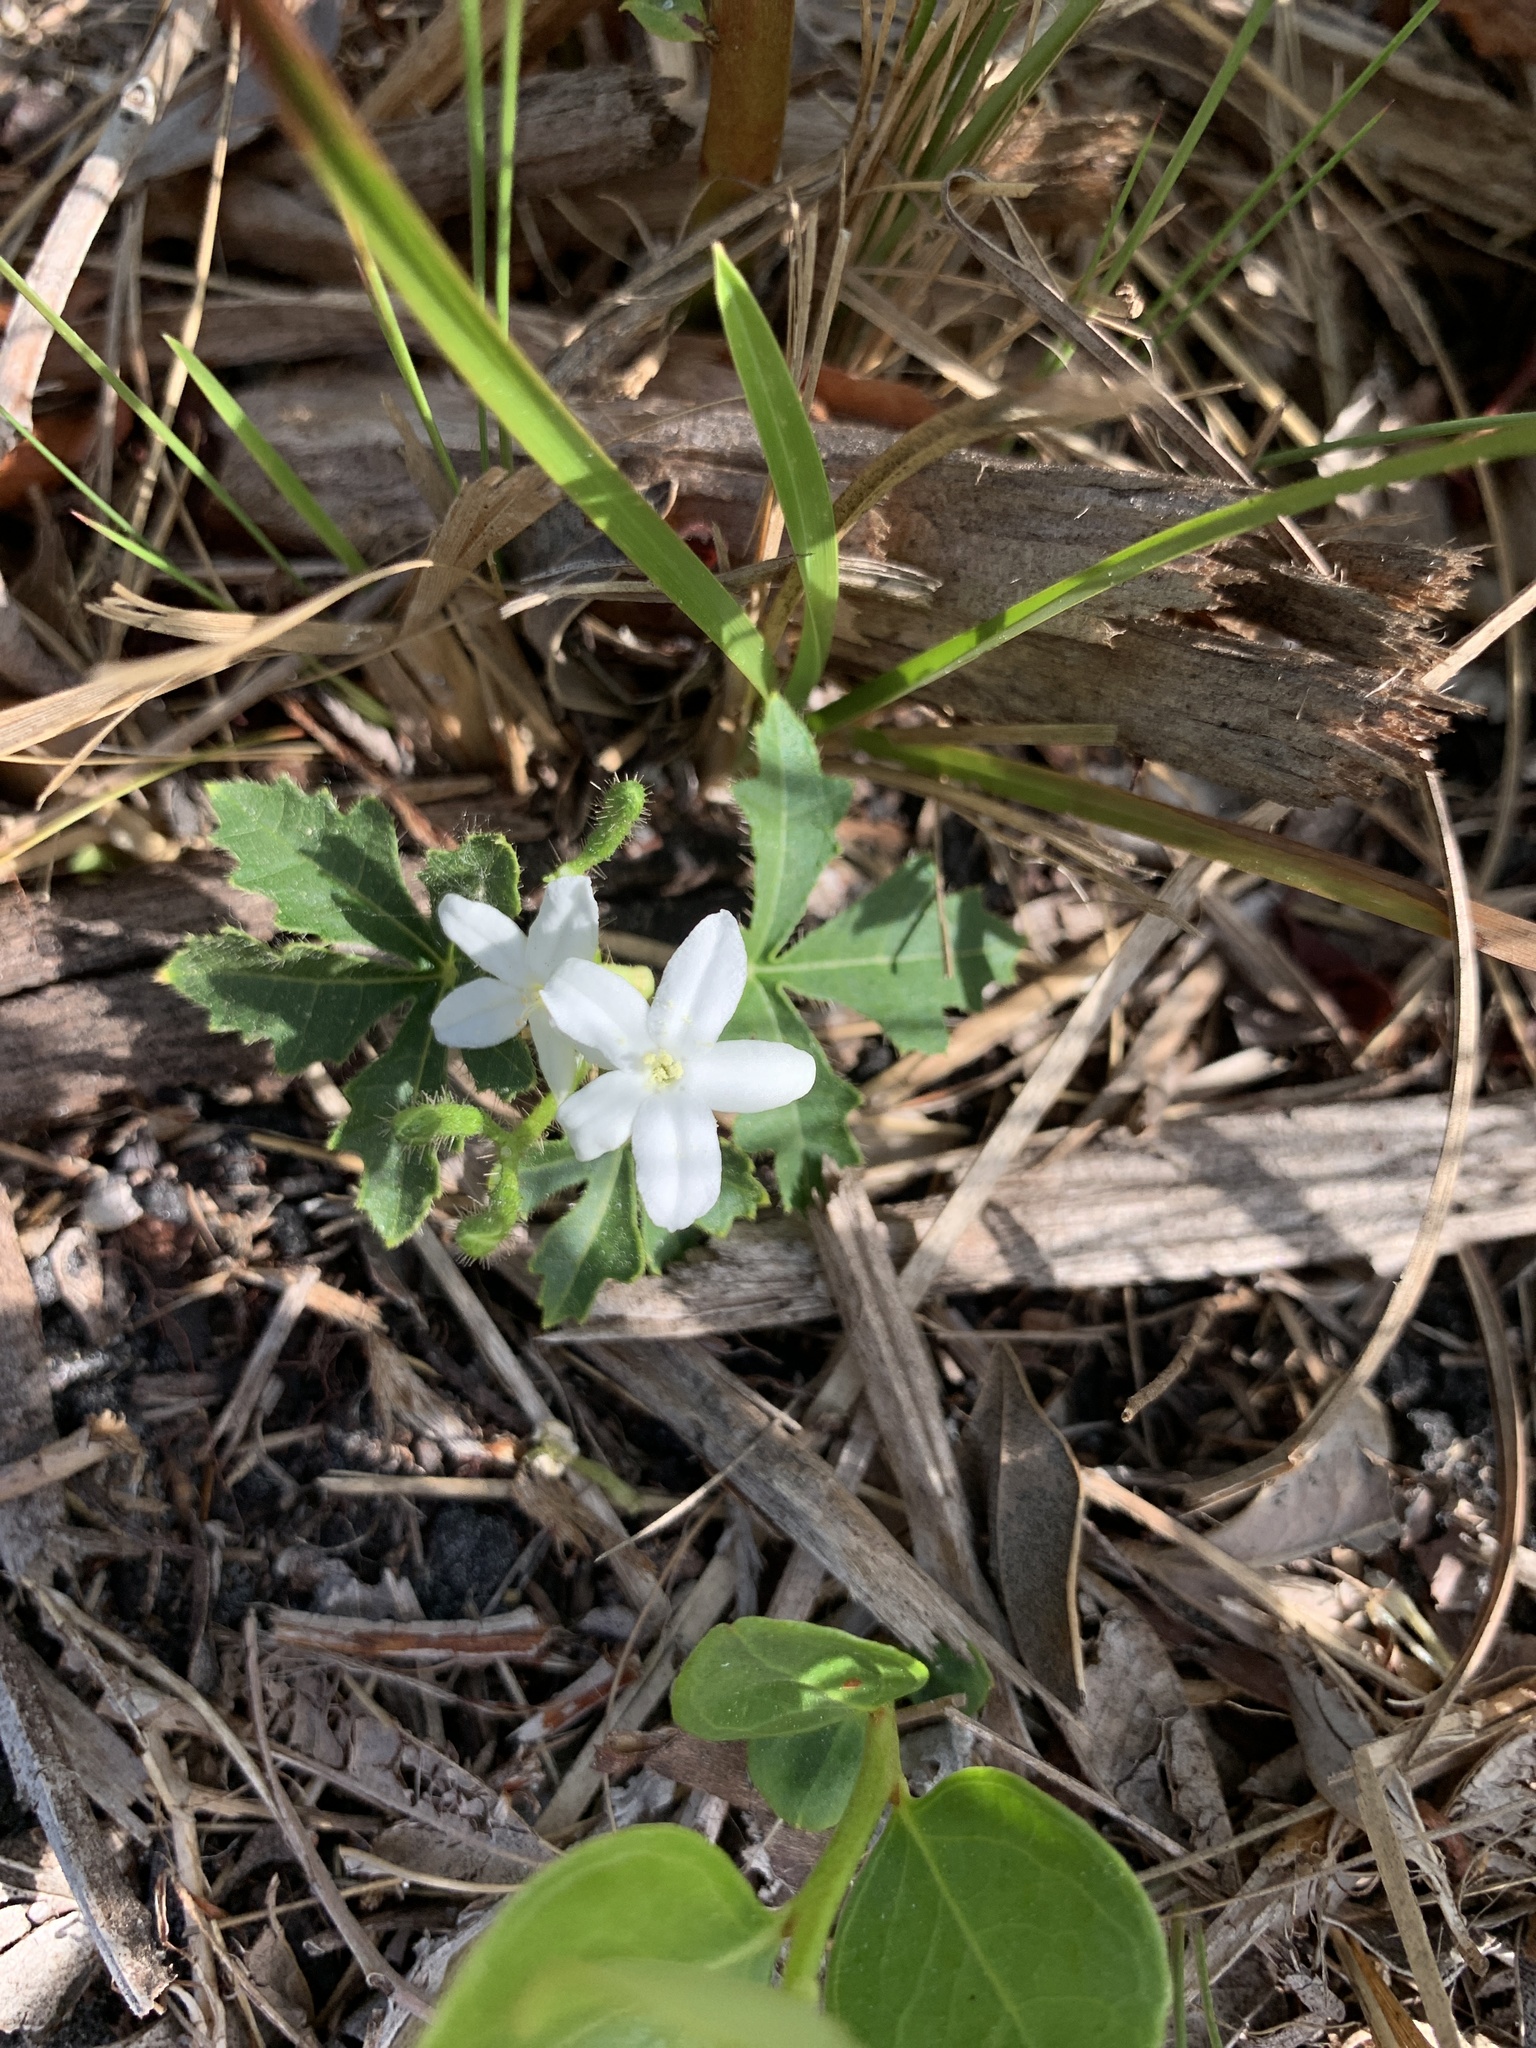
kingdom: Plantae
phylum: Tracheophyta
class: Magnoliopsida
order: Malpighiales
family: Euphorbiaceae
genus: Cnidoscolus
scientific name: Cnidoscolus stimulosus
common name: Bull-nettle
